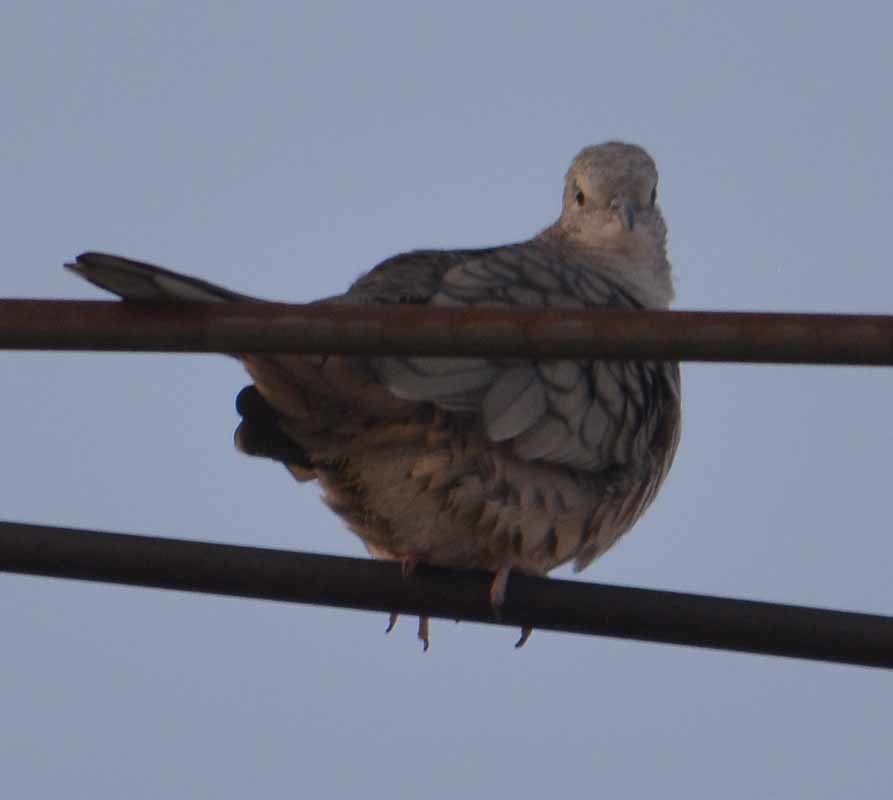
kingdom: Animalia
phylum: Chordata
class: Aves
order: Columbiformes
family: Columbidae
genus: Columbina
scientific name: Columbina inca
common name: Inca dove
